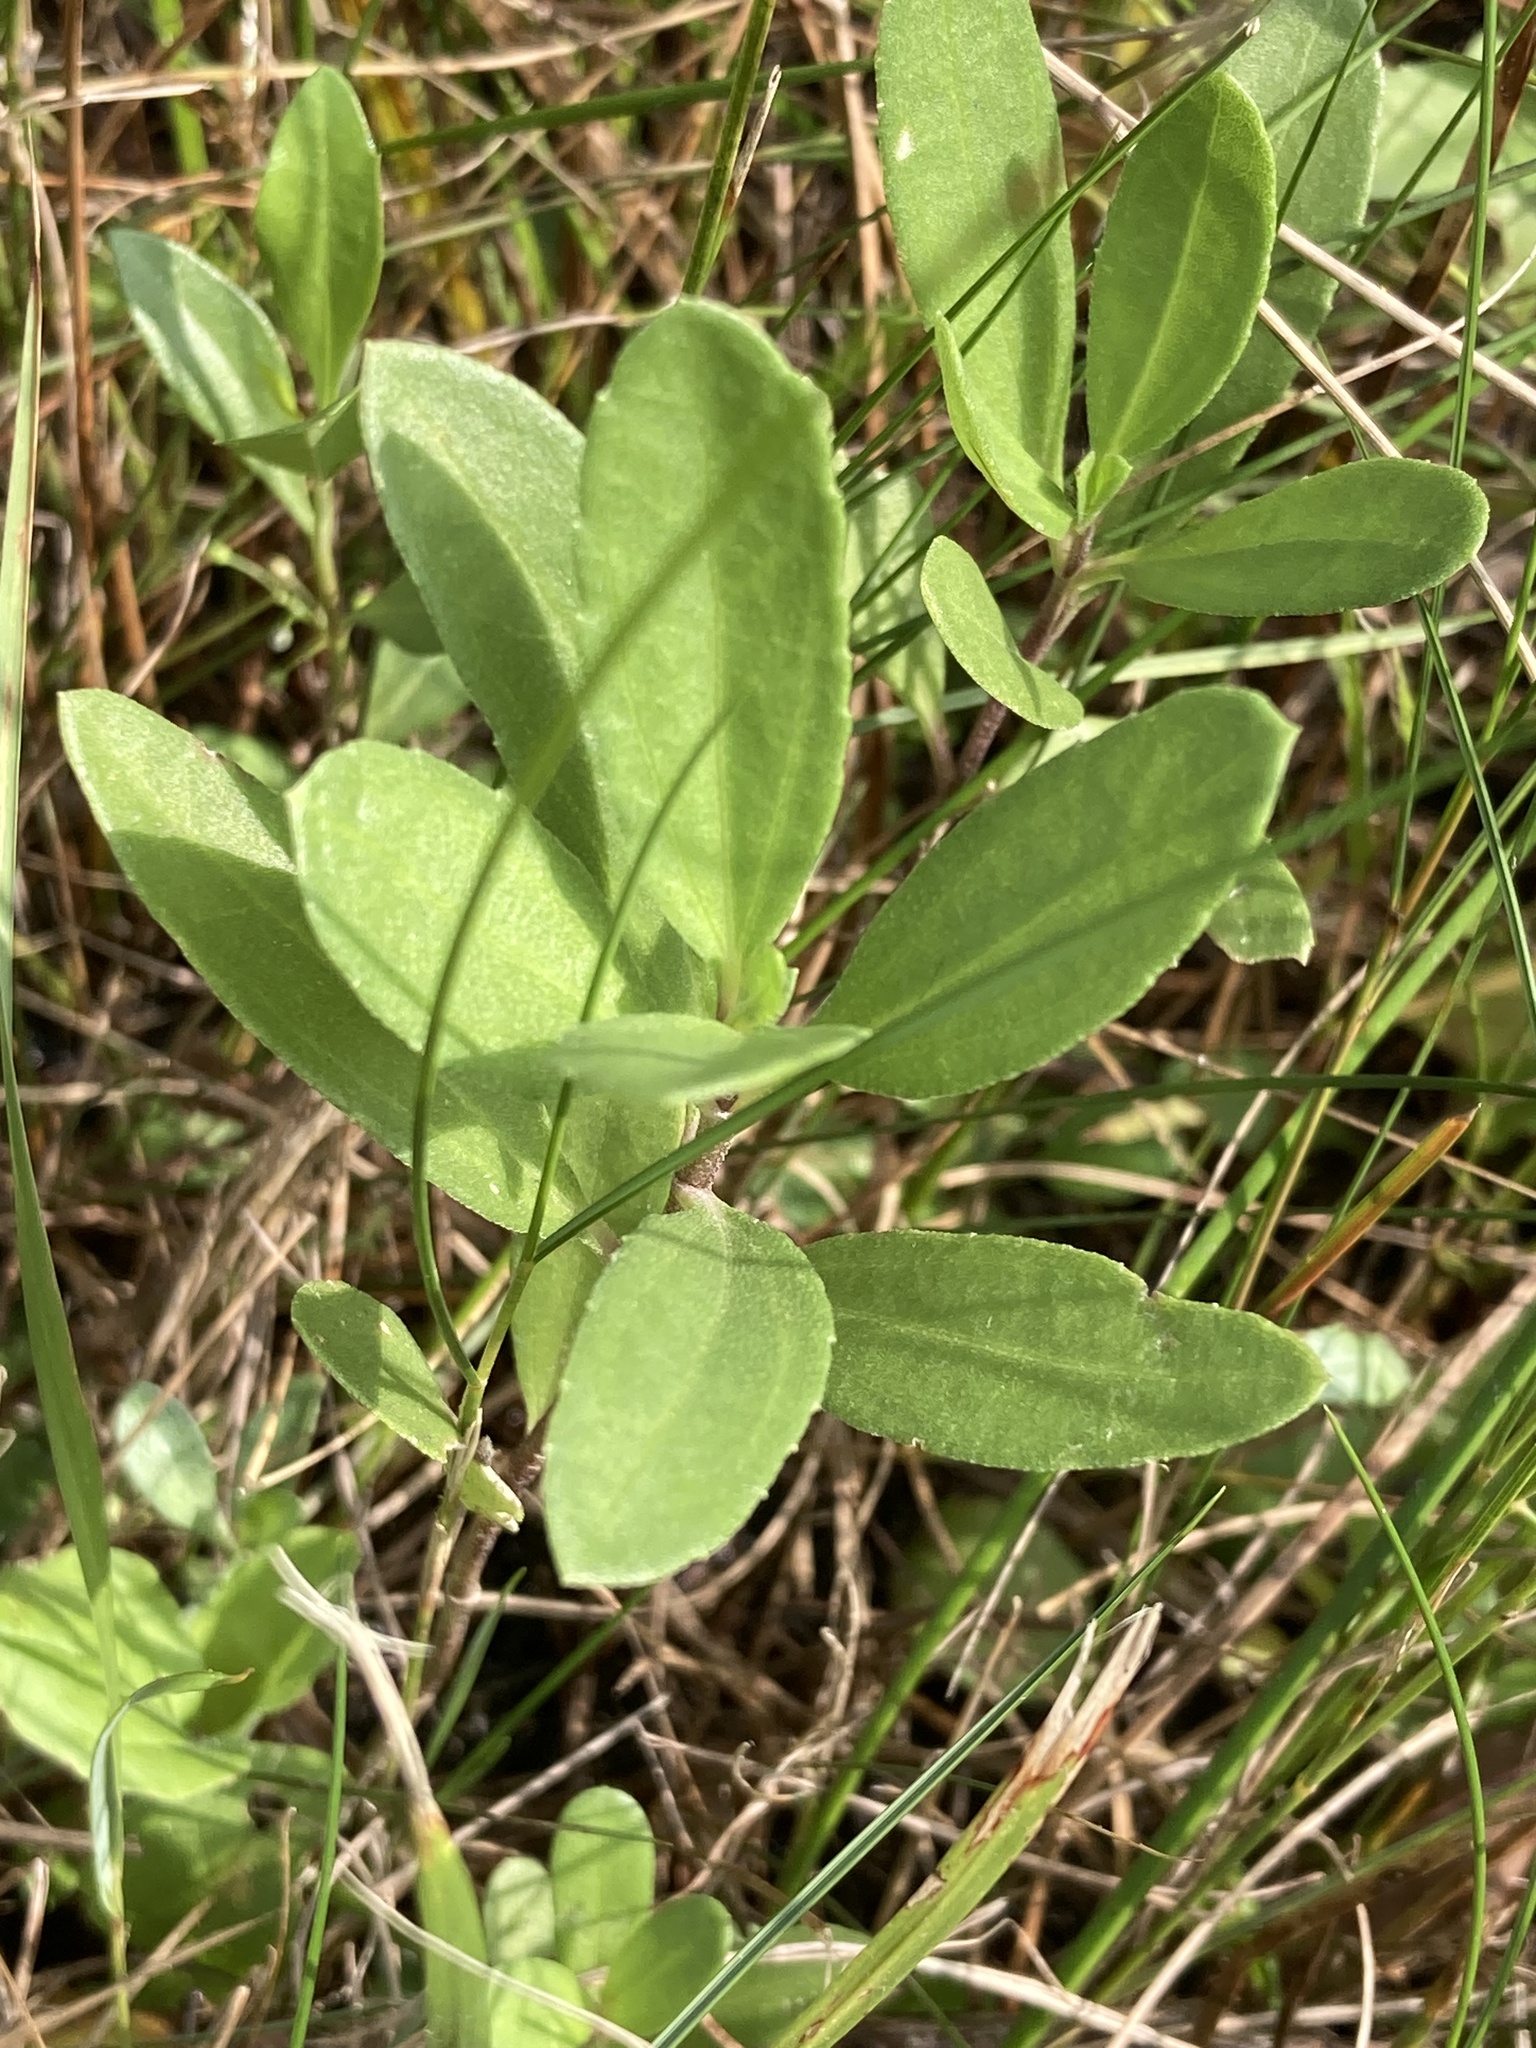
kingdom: Plantae
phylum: Tracheophyta
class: Magnoliopsida
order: Asterales
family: Asteraceae
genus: Iva
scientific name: Iva frutescens
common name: Big-leaved marsh-elder
